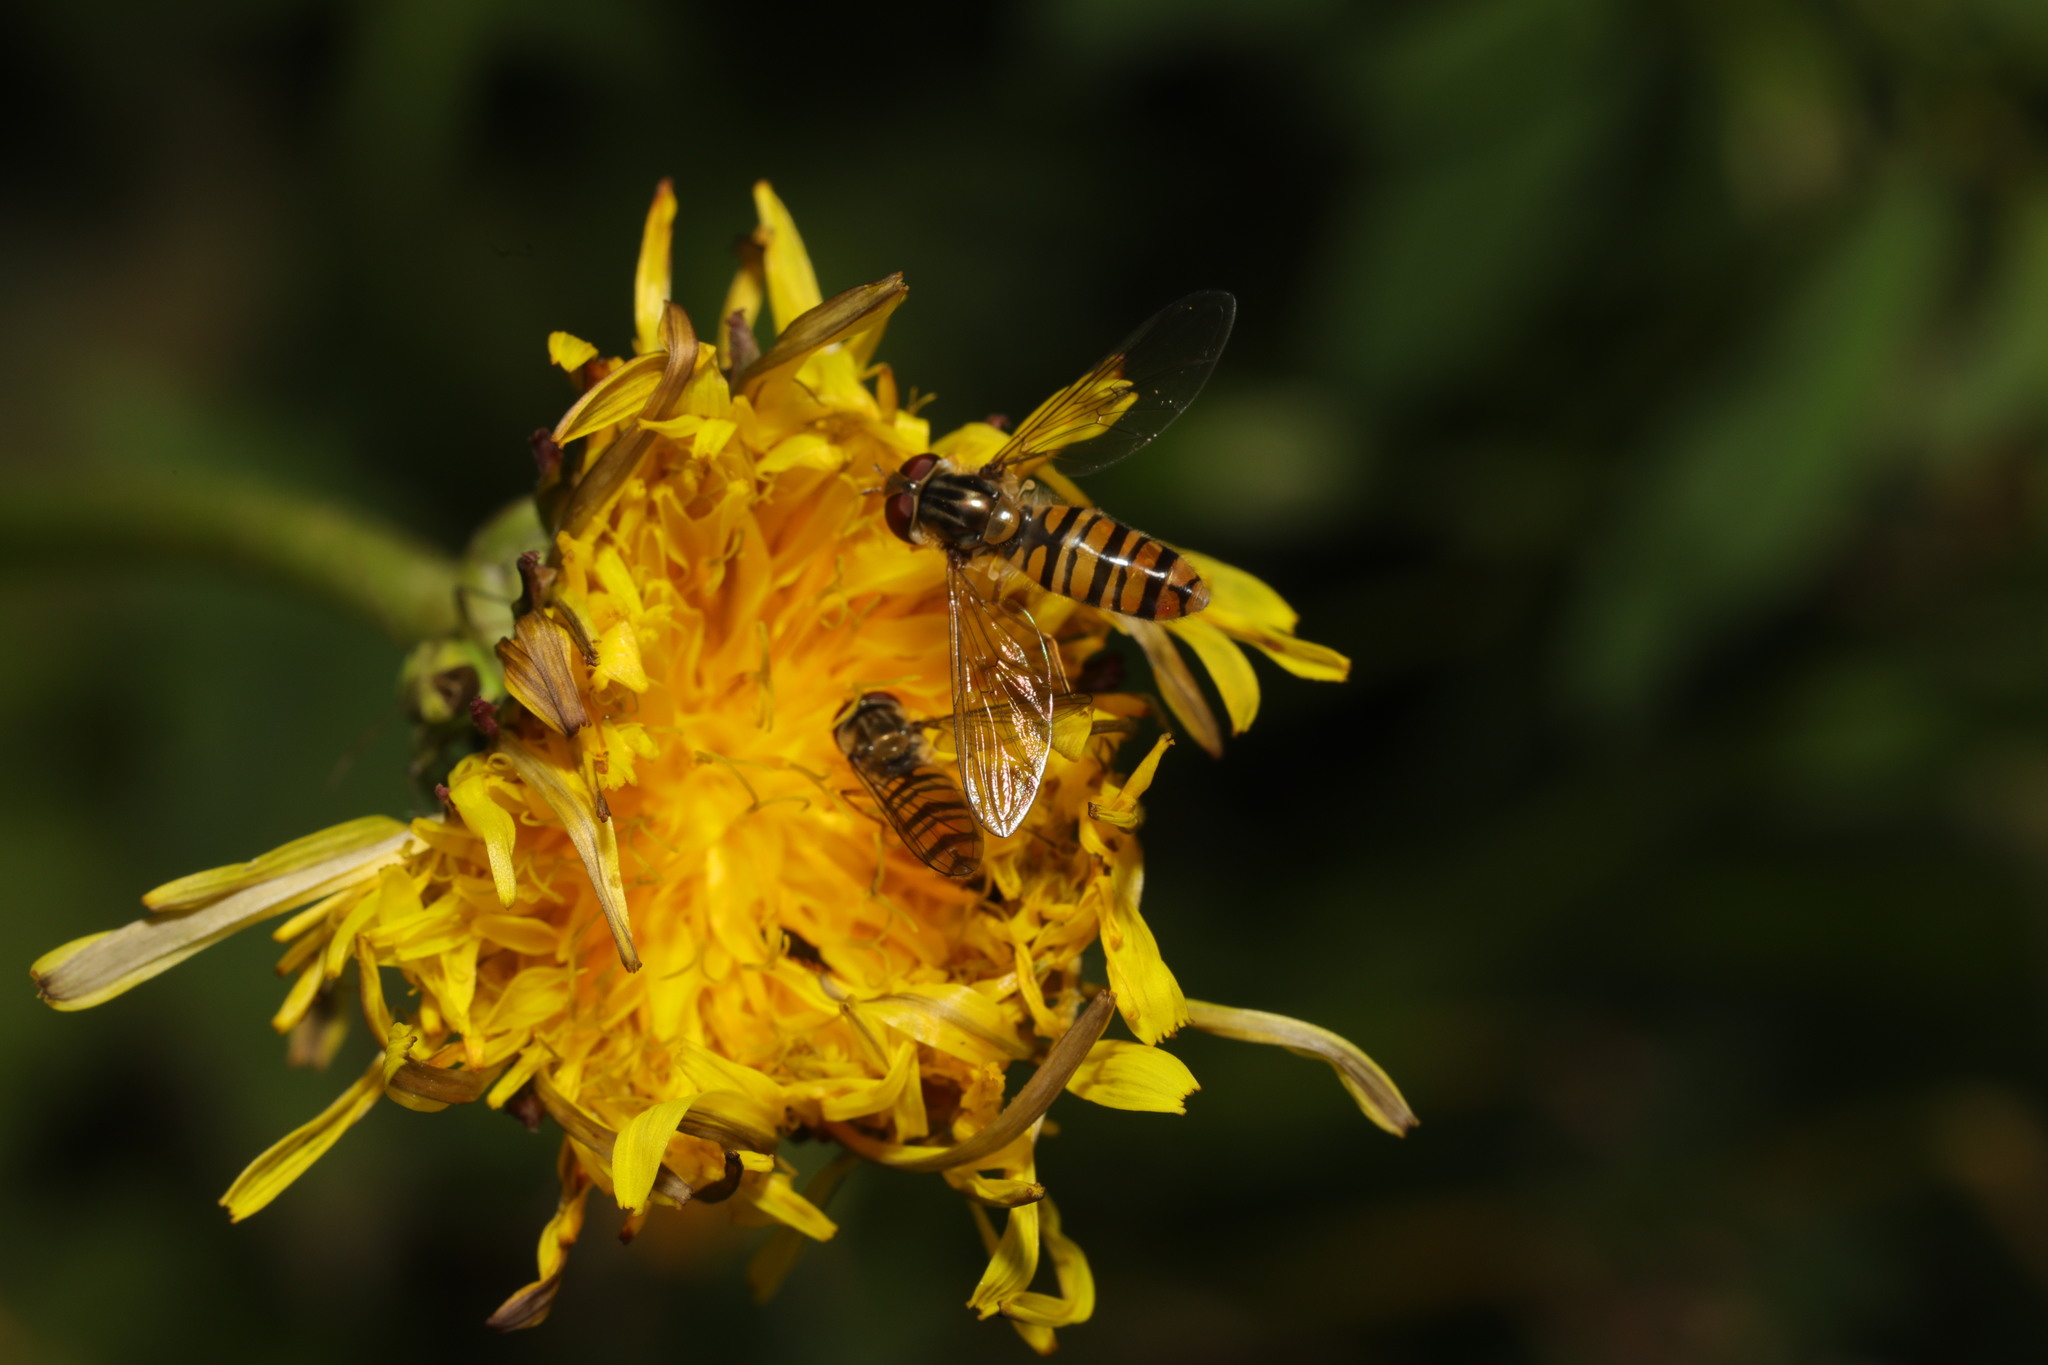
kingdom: Animalia
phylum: Arthropoda
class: Insecta
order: Diptera
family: Syrphidae
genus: Episyrphus
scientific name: Episyrphus balteatus
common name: Marmalade hoverfly
